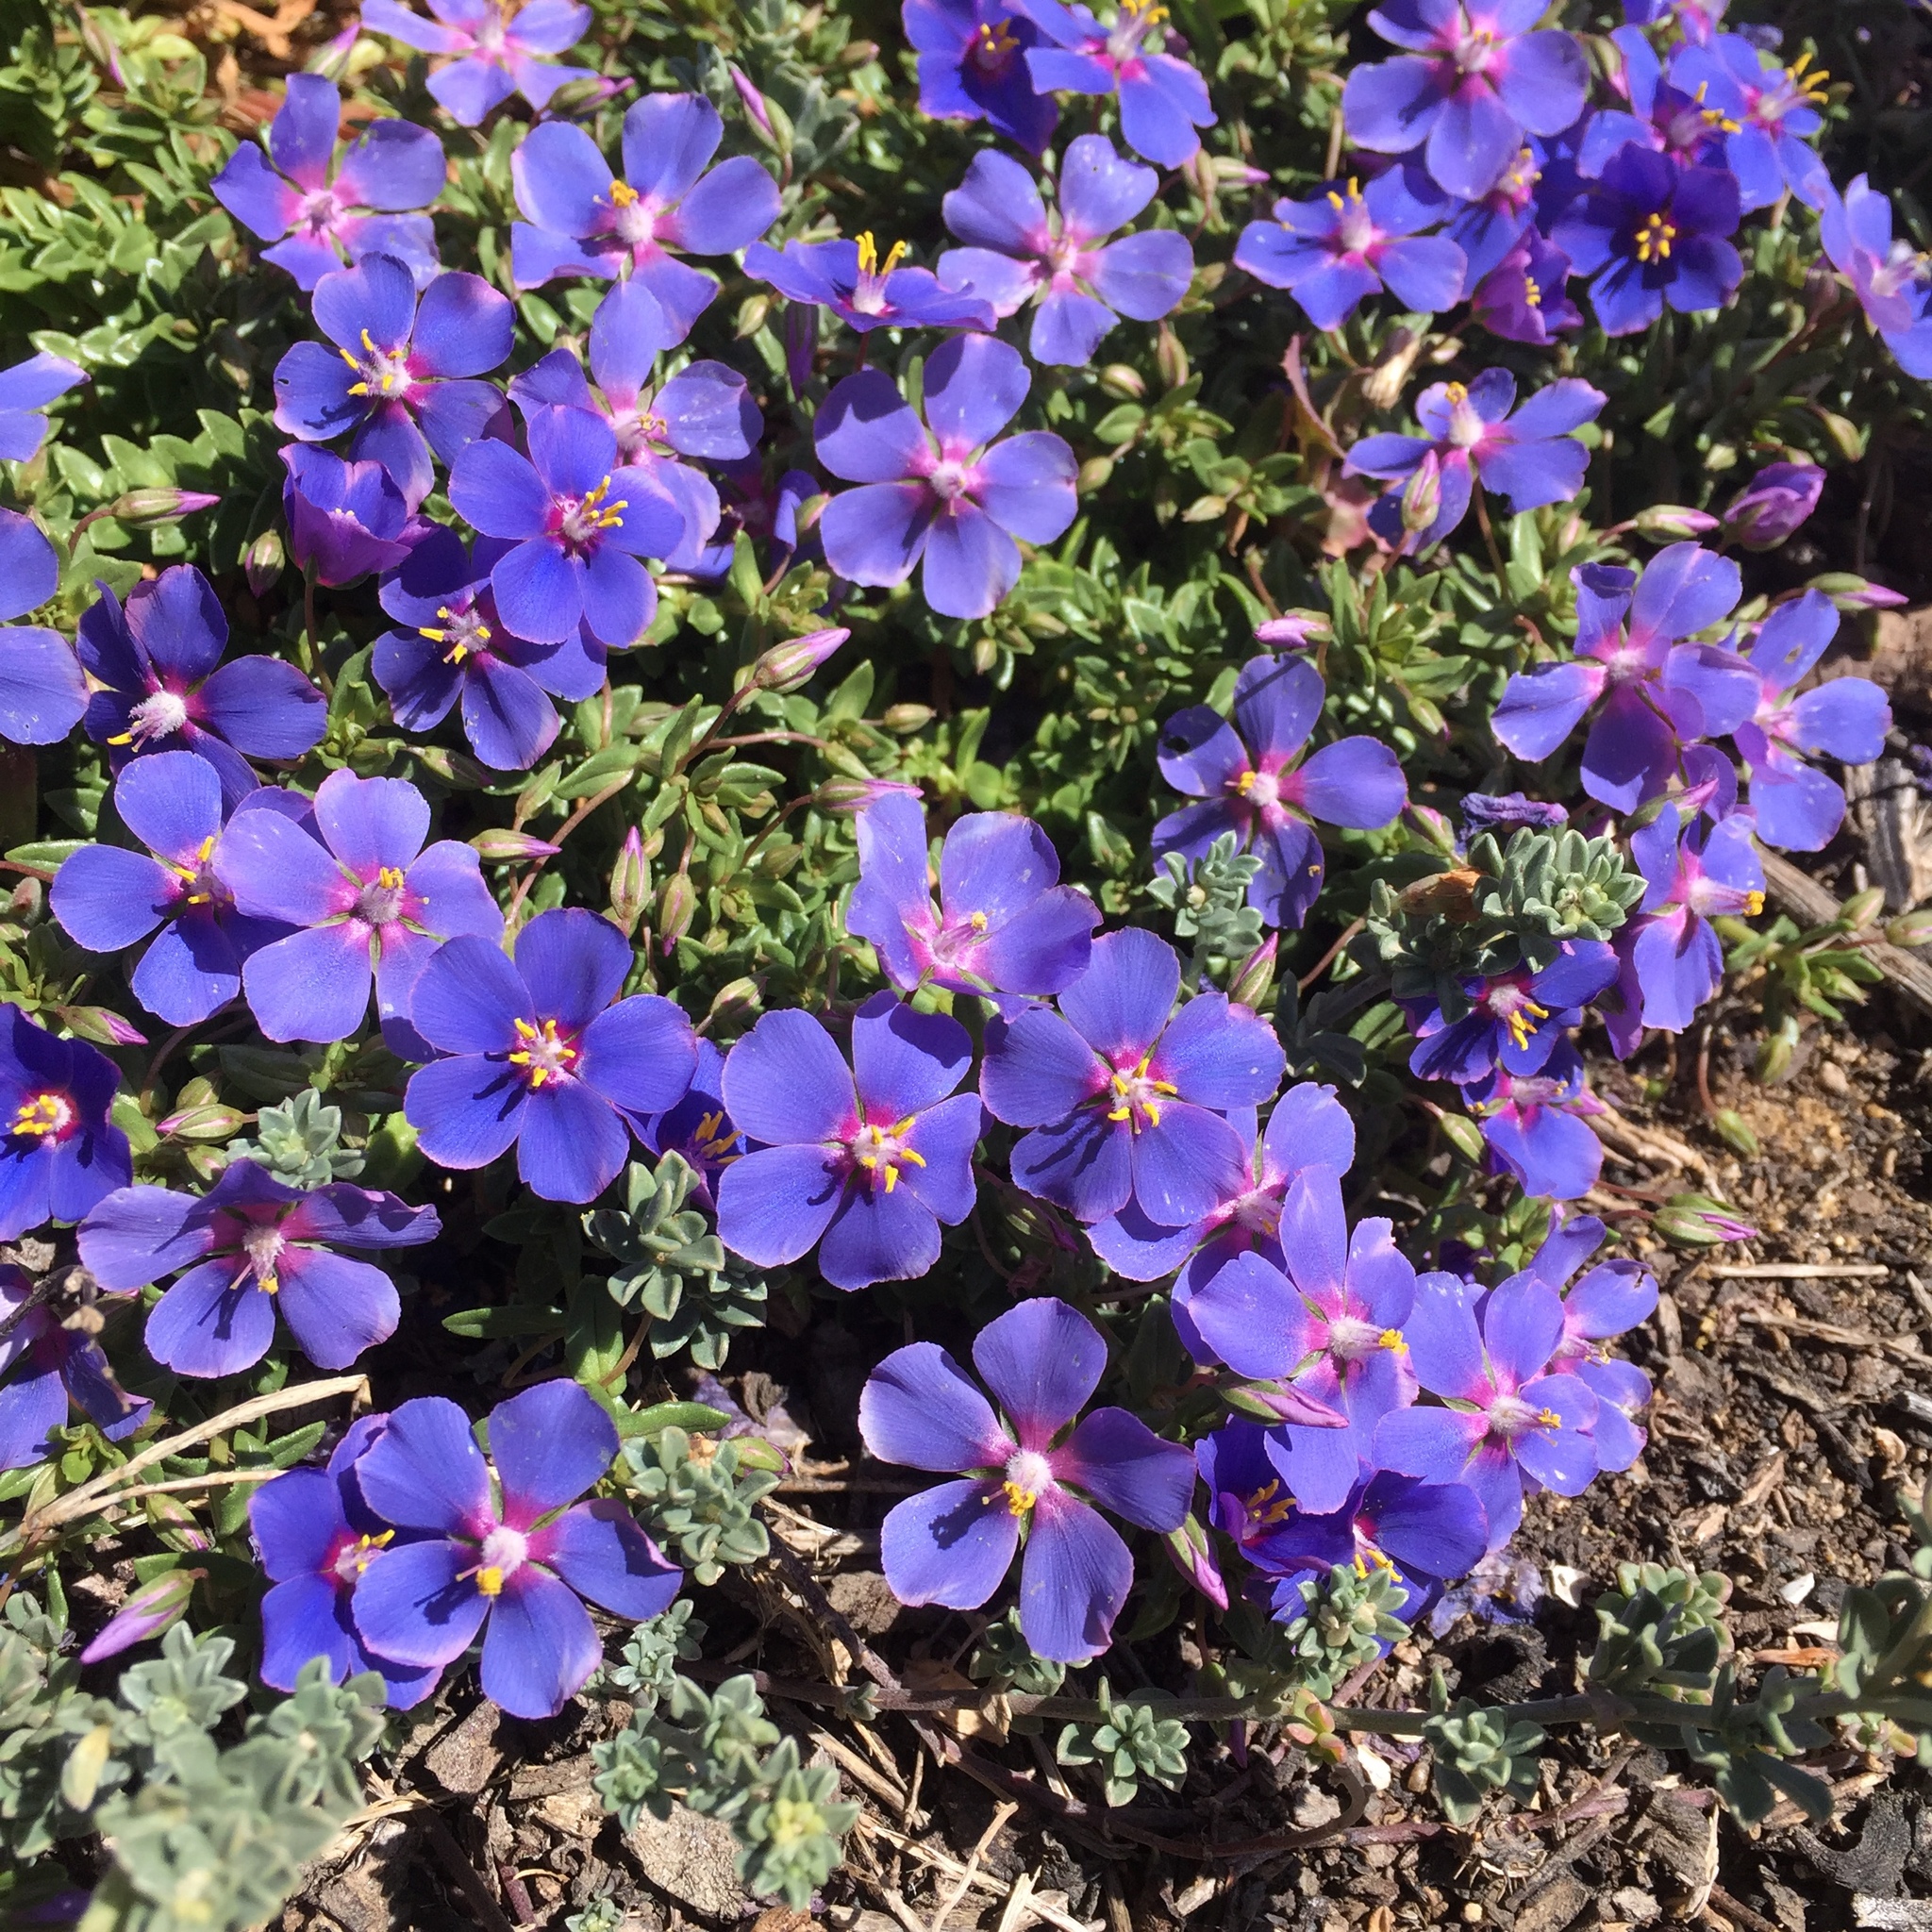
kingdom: Plantae
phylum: Tracheophyta
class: Magnoliopsida
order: Ericales
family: Primulaceae
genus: Lysimachia
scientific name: Lysimachia monelli
